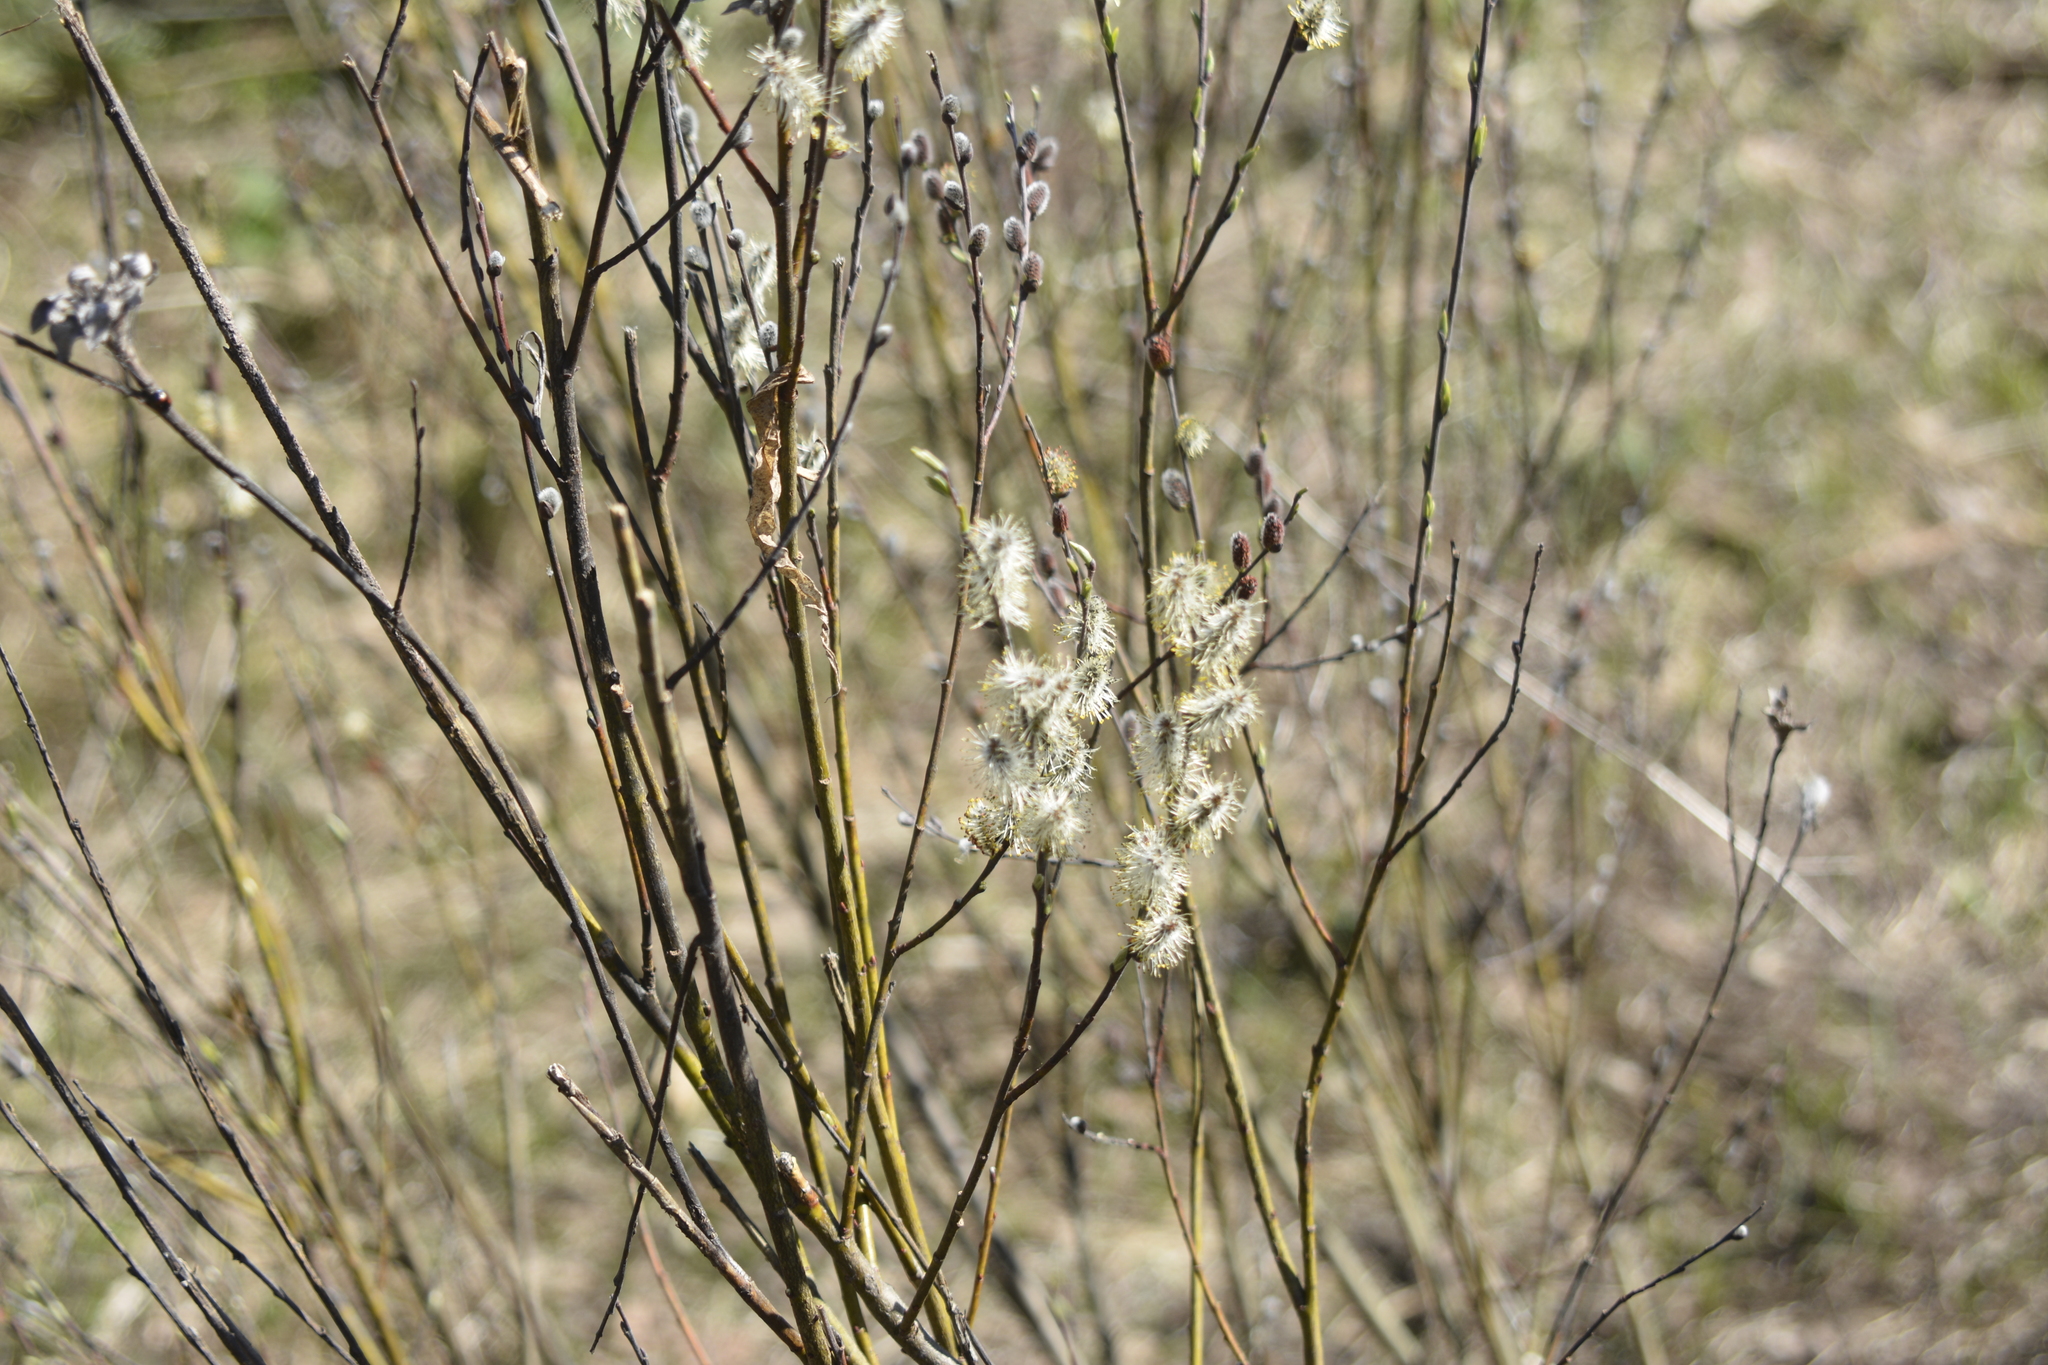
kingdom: Plantae
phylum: Tracheophyta
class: Magnoliopsida
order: Malpighiales
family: Salicaceae
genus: Salix
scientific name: Salix rosmarinifolia
